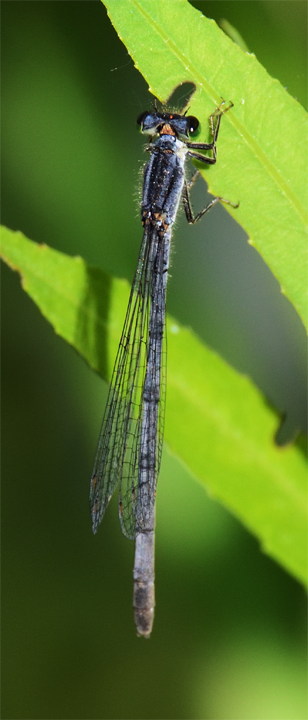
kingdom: Animalia
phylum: Arthropoda
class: Insecta
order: Odonata
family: Coenagrionidae
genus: Ischnura
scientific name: Ischnura verticalis
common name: Eastern forktail
